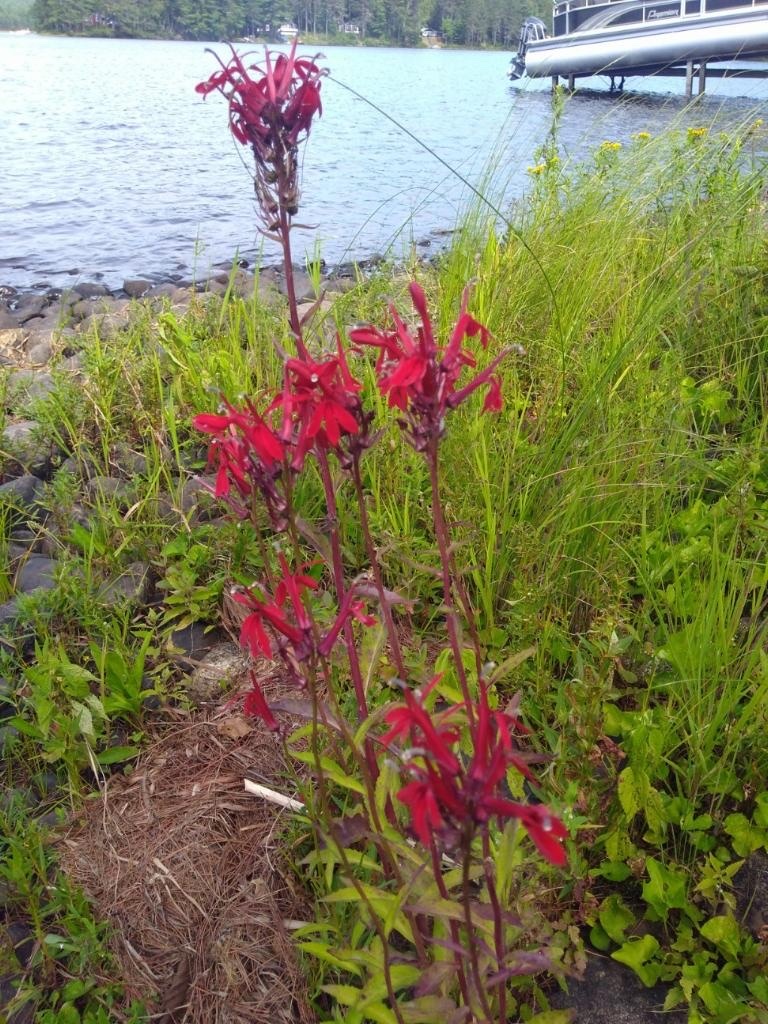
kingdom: Plantae
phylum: Tracheophyta
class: Magnoliopsida
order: Asterales
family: Campanulaceae
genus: Lobelia
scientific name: Lobelia cardinalis
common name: Cardinal flower
